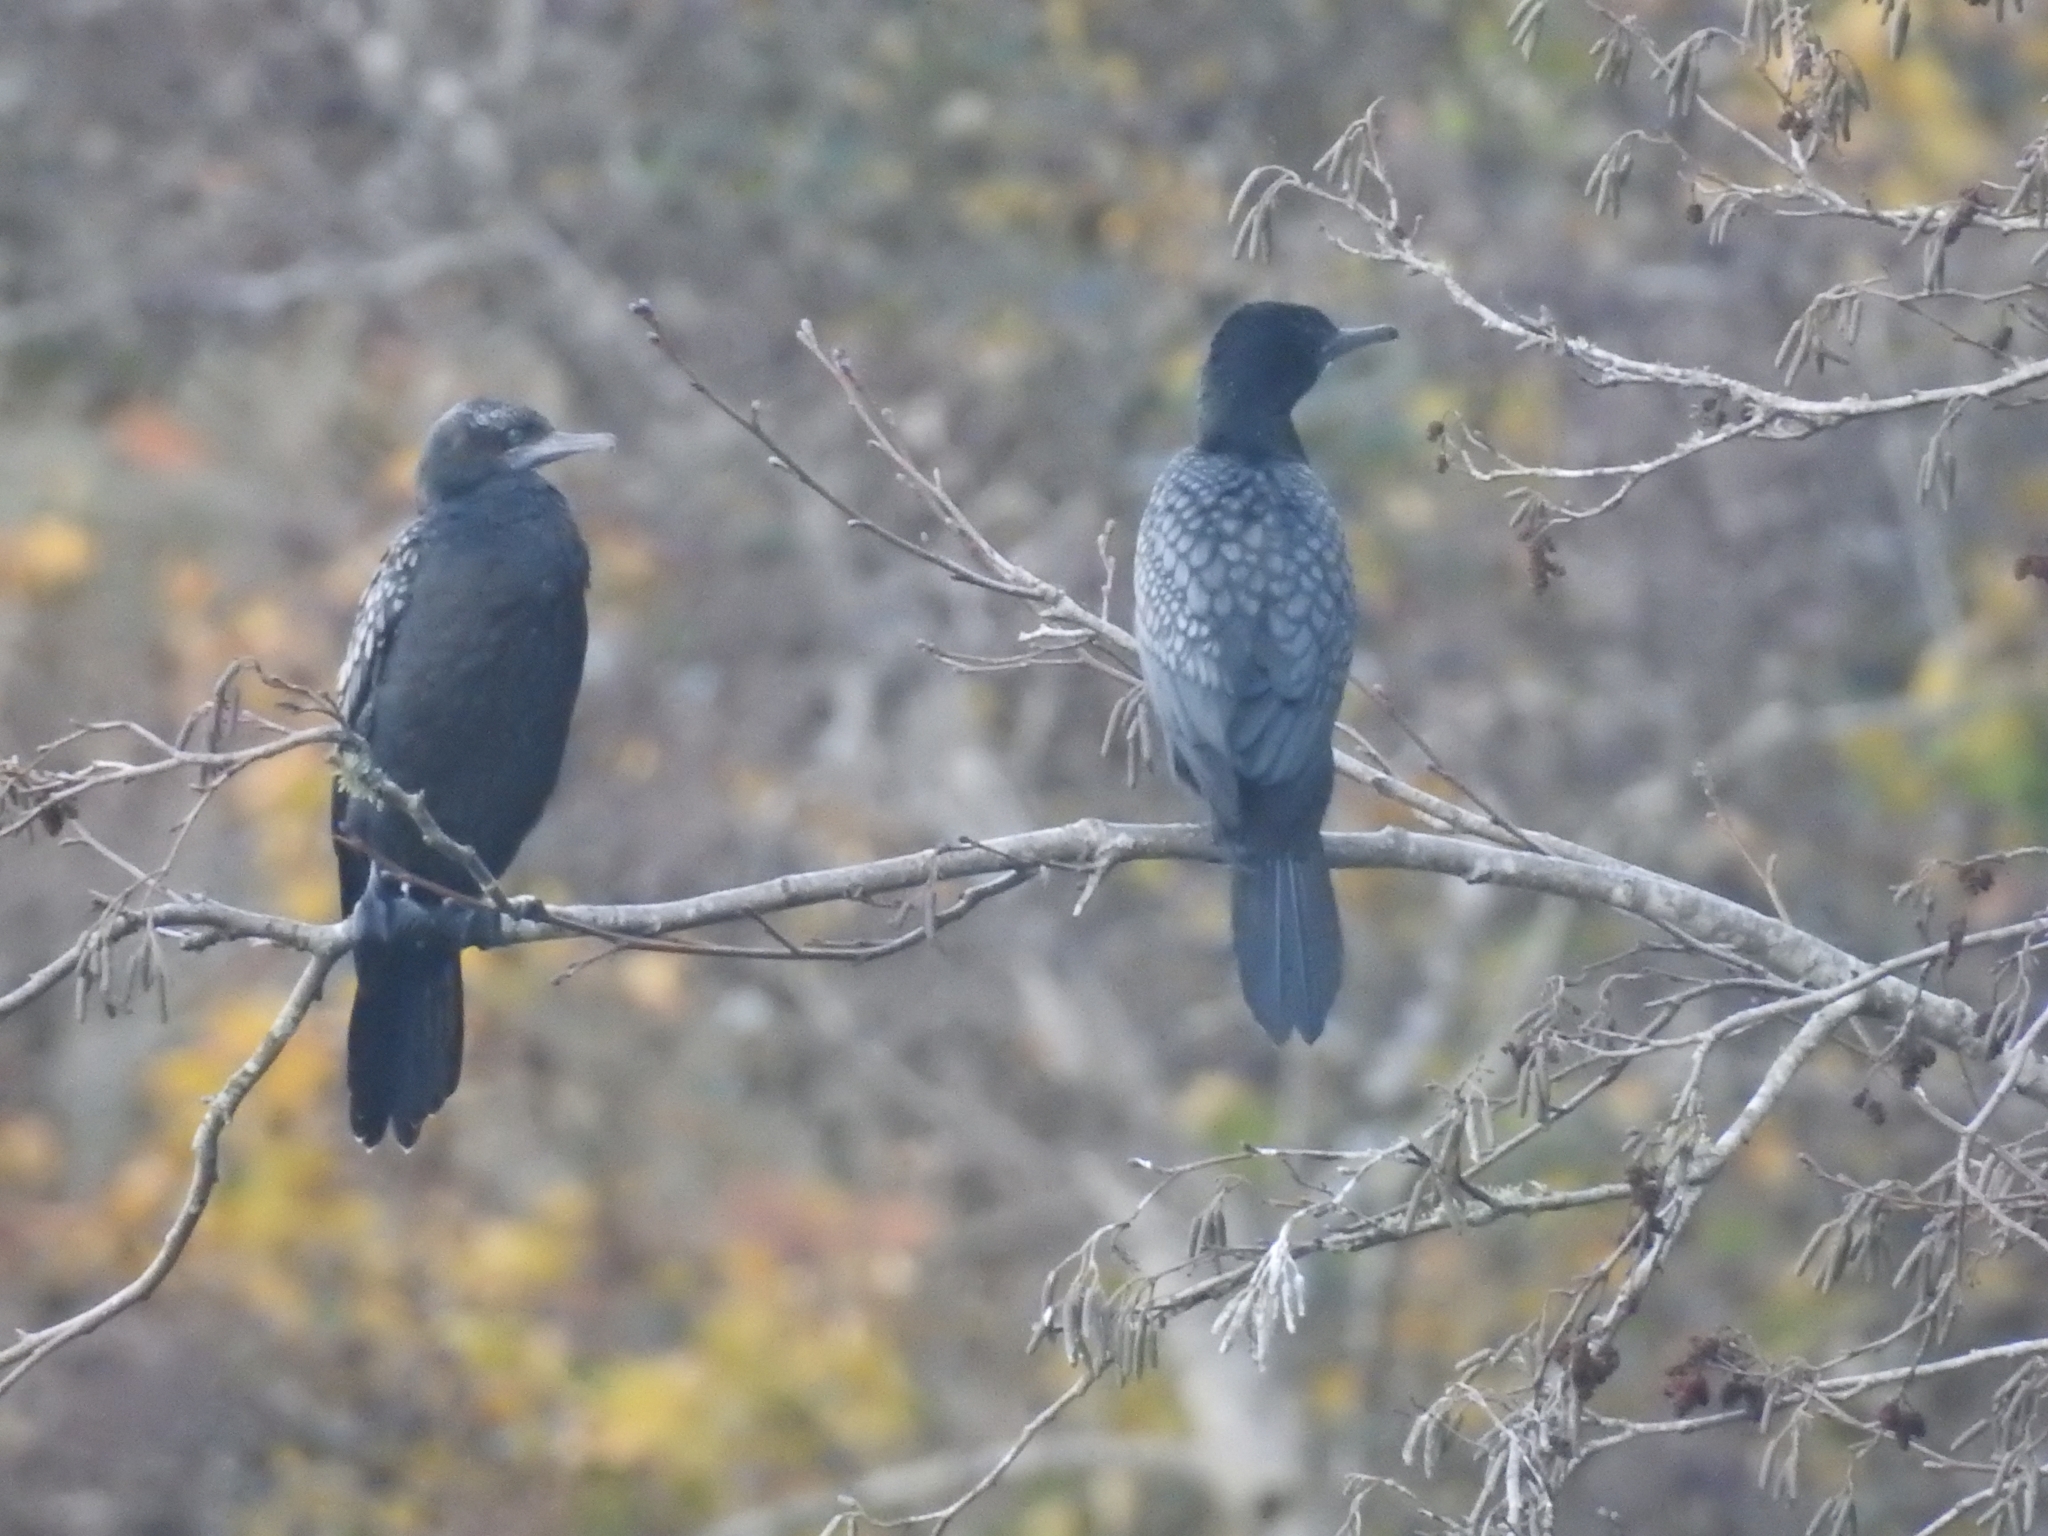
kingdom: Animalia
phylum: Chordata
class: Aves
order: Suliformes
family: Phalacrocoracidae
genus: Phalacrocorax
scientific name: Phalacrocorax sulcirostris
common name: Little black cormorant
